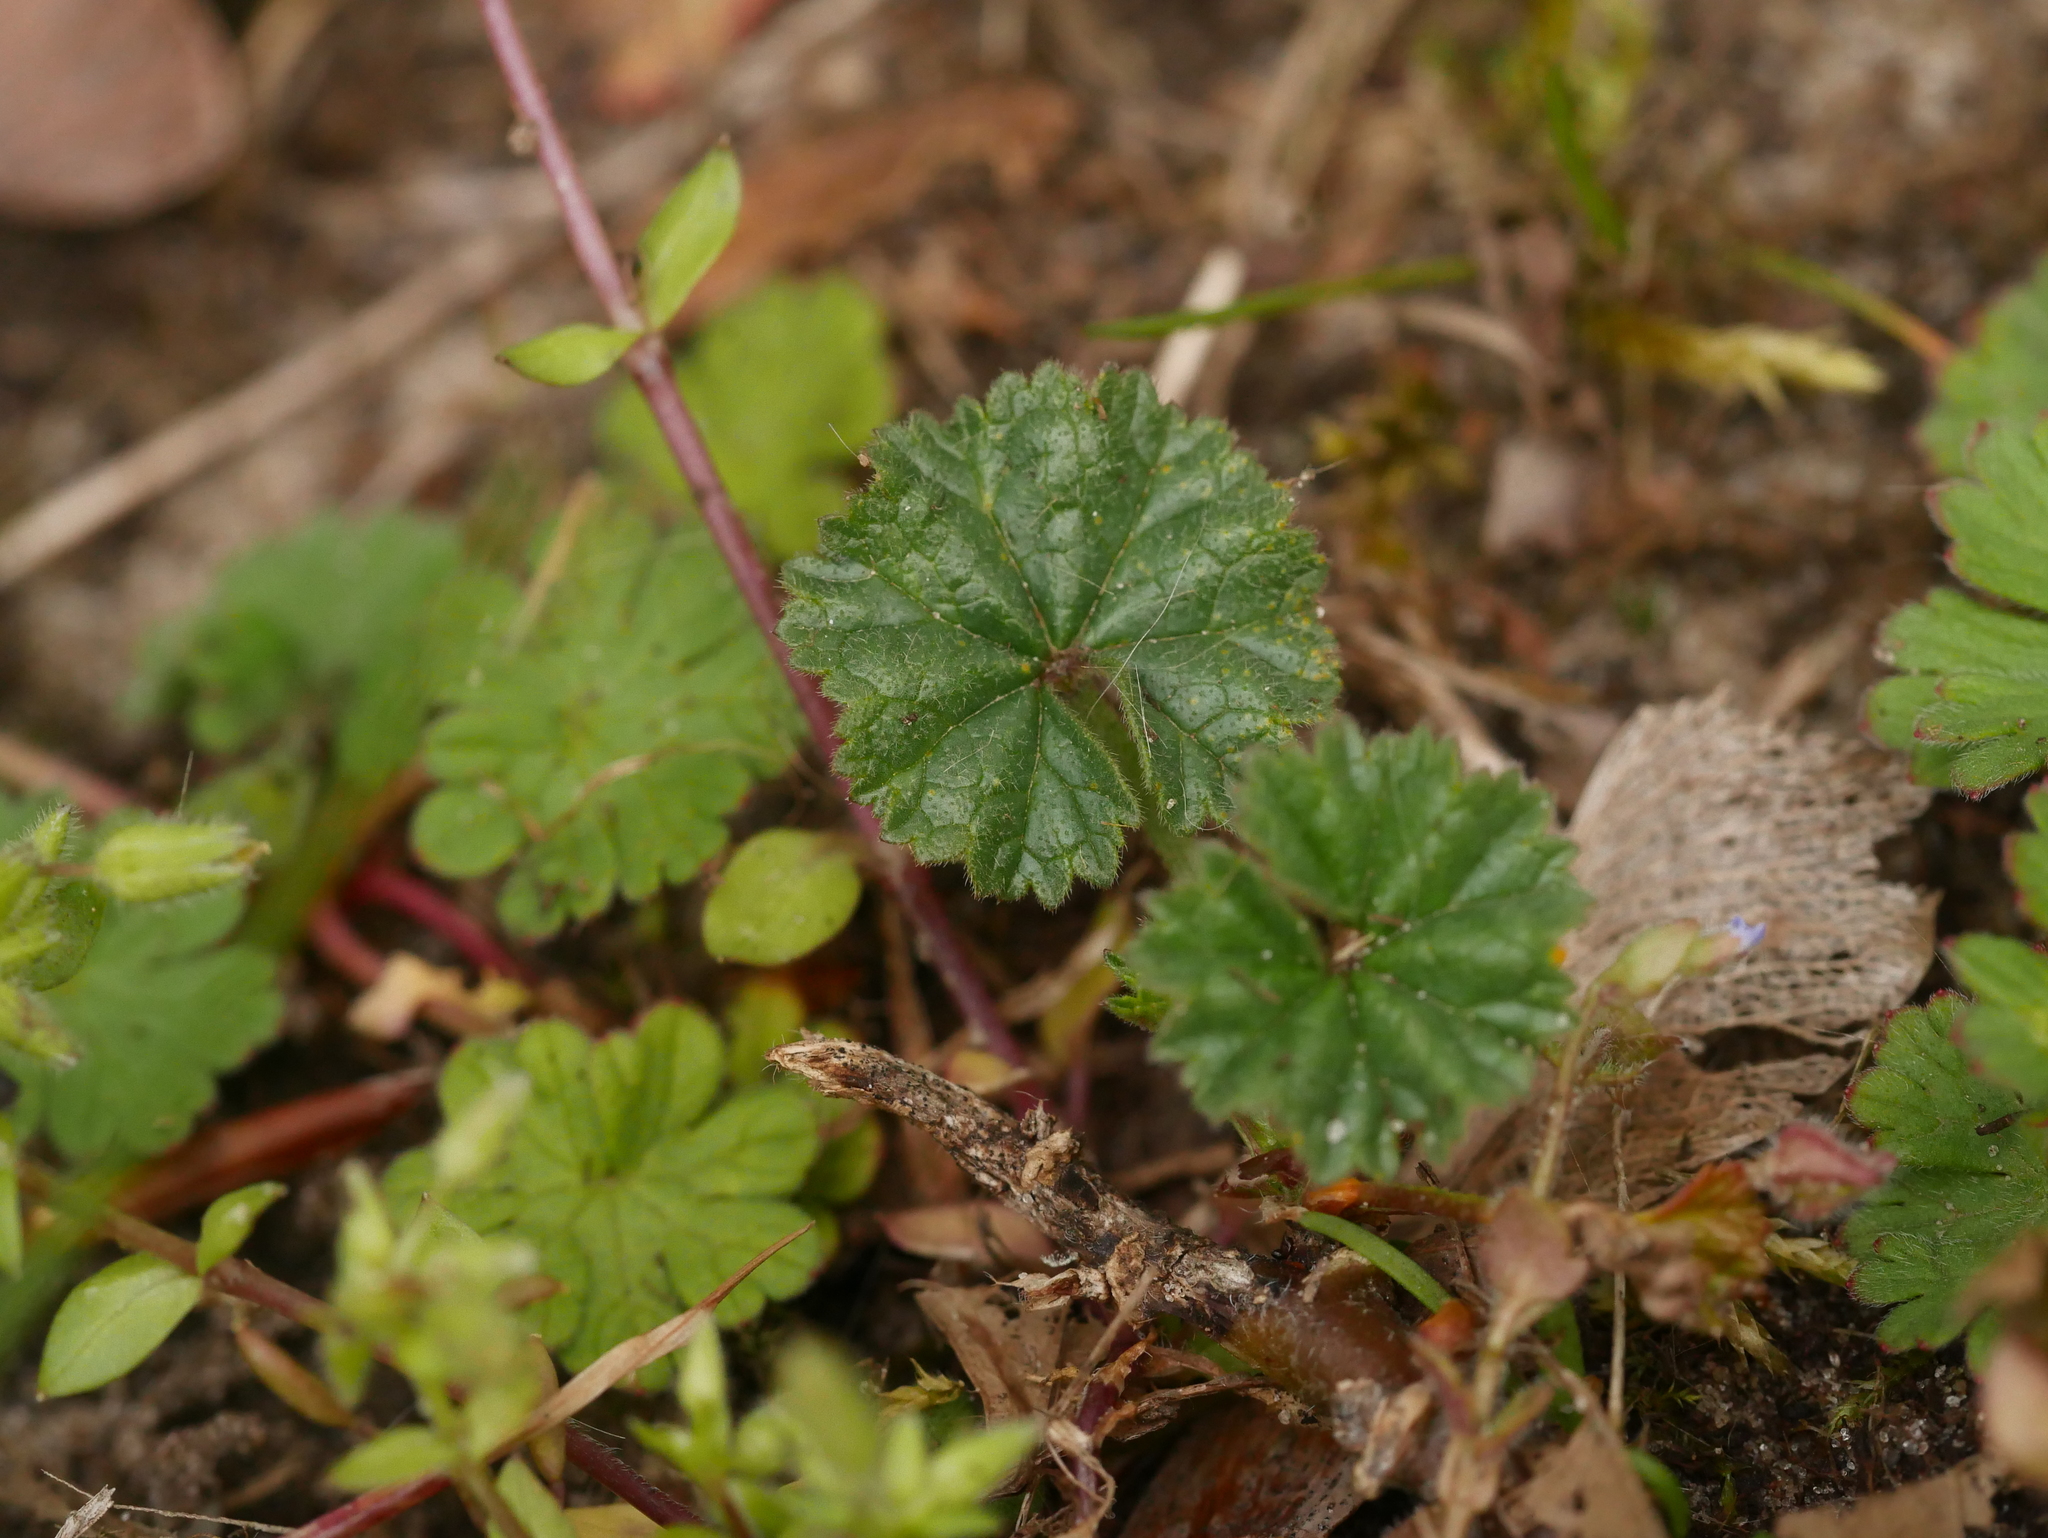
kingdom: Plantae
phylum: Tracheophyta
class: Magnoliopsida
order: Malvales
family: Malvaceae
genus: Malva
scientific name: Malva neglecta
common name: Common mallow
